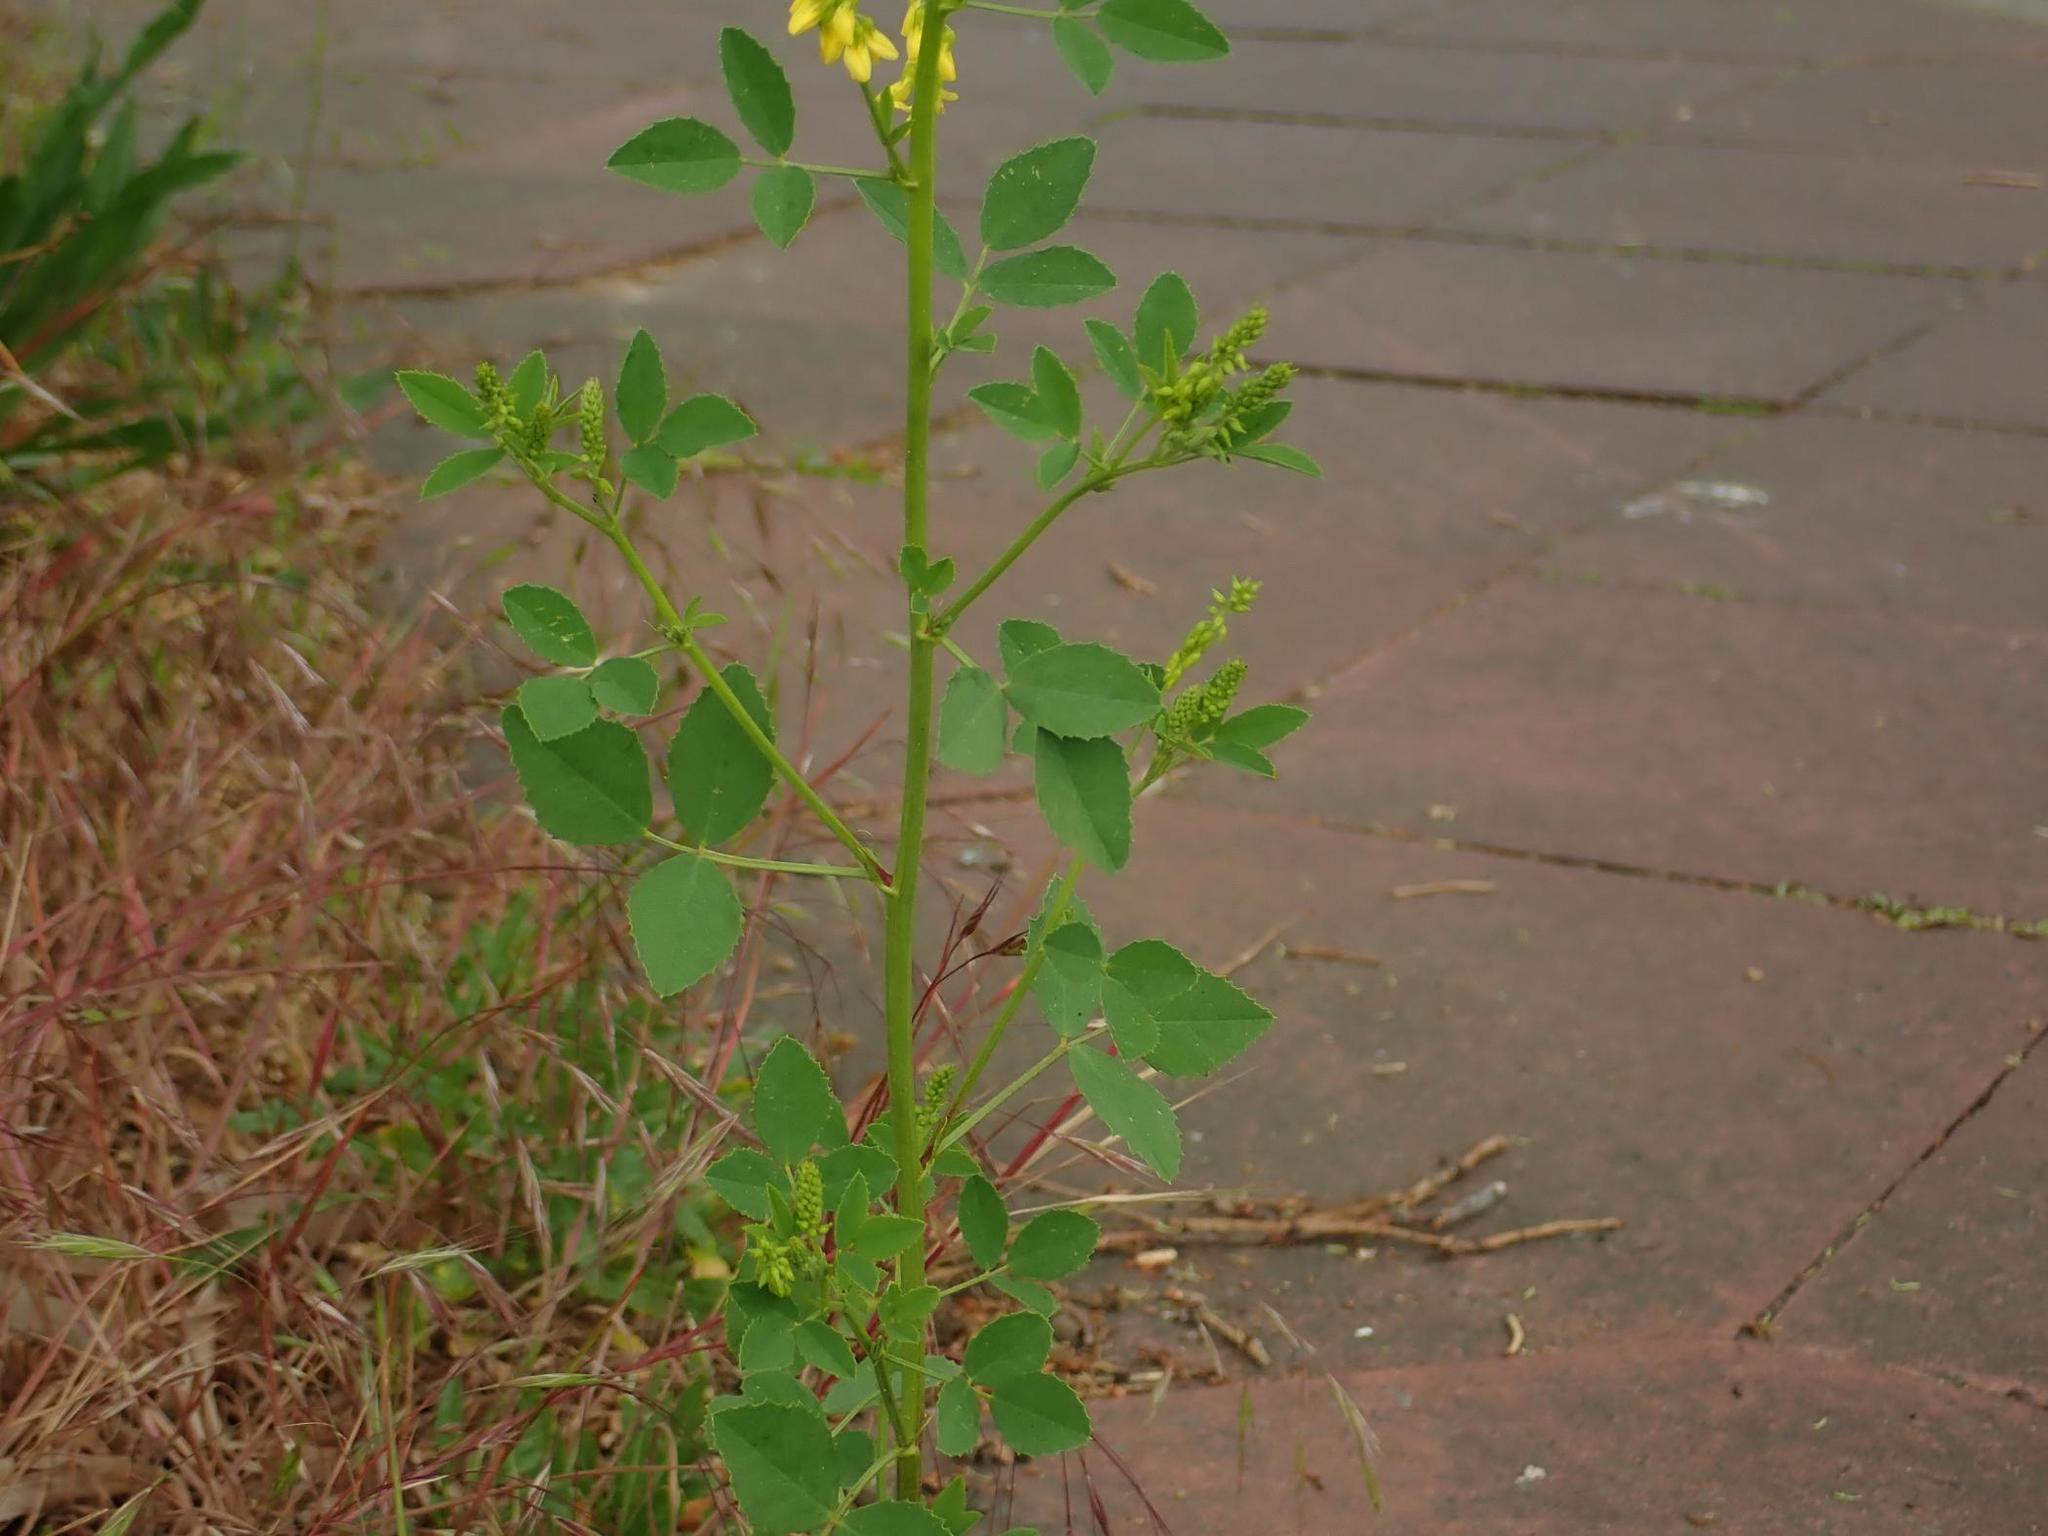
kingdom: Plantae
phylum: Tracheophyta
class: Magnoliopsida
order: Fabales
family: Fabaceae
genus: Melilotus
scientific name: Melilotus officinalis
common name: Sweetclover
